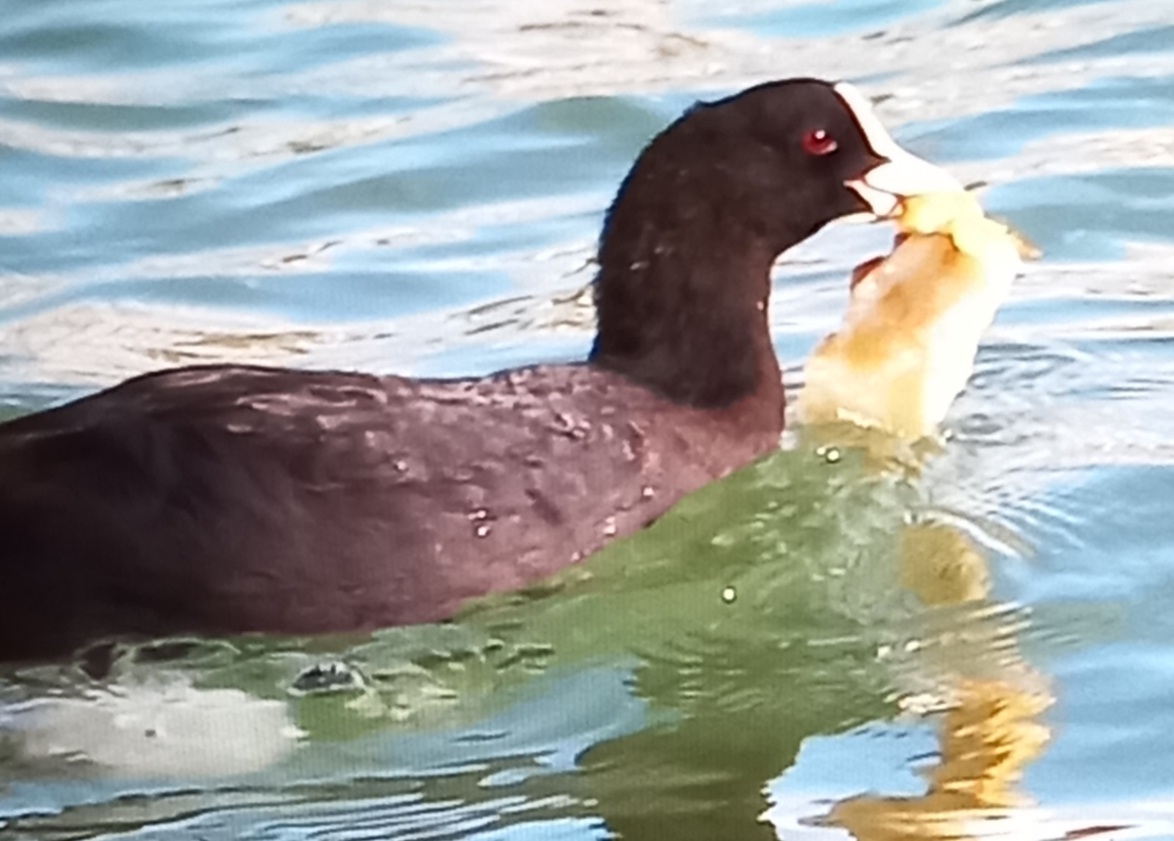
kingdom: Animalia
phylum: Chordata
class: Aves
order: Gruiformes
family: Rallidae
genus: Fulica
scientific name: Fulica atra
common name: Eurasian coot
